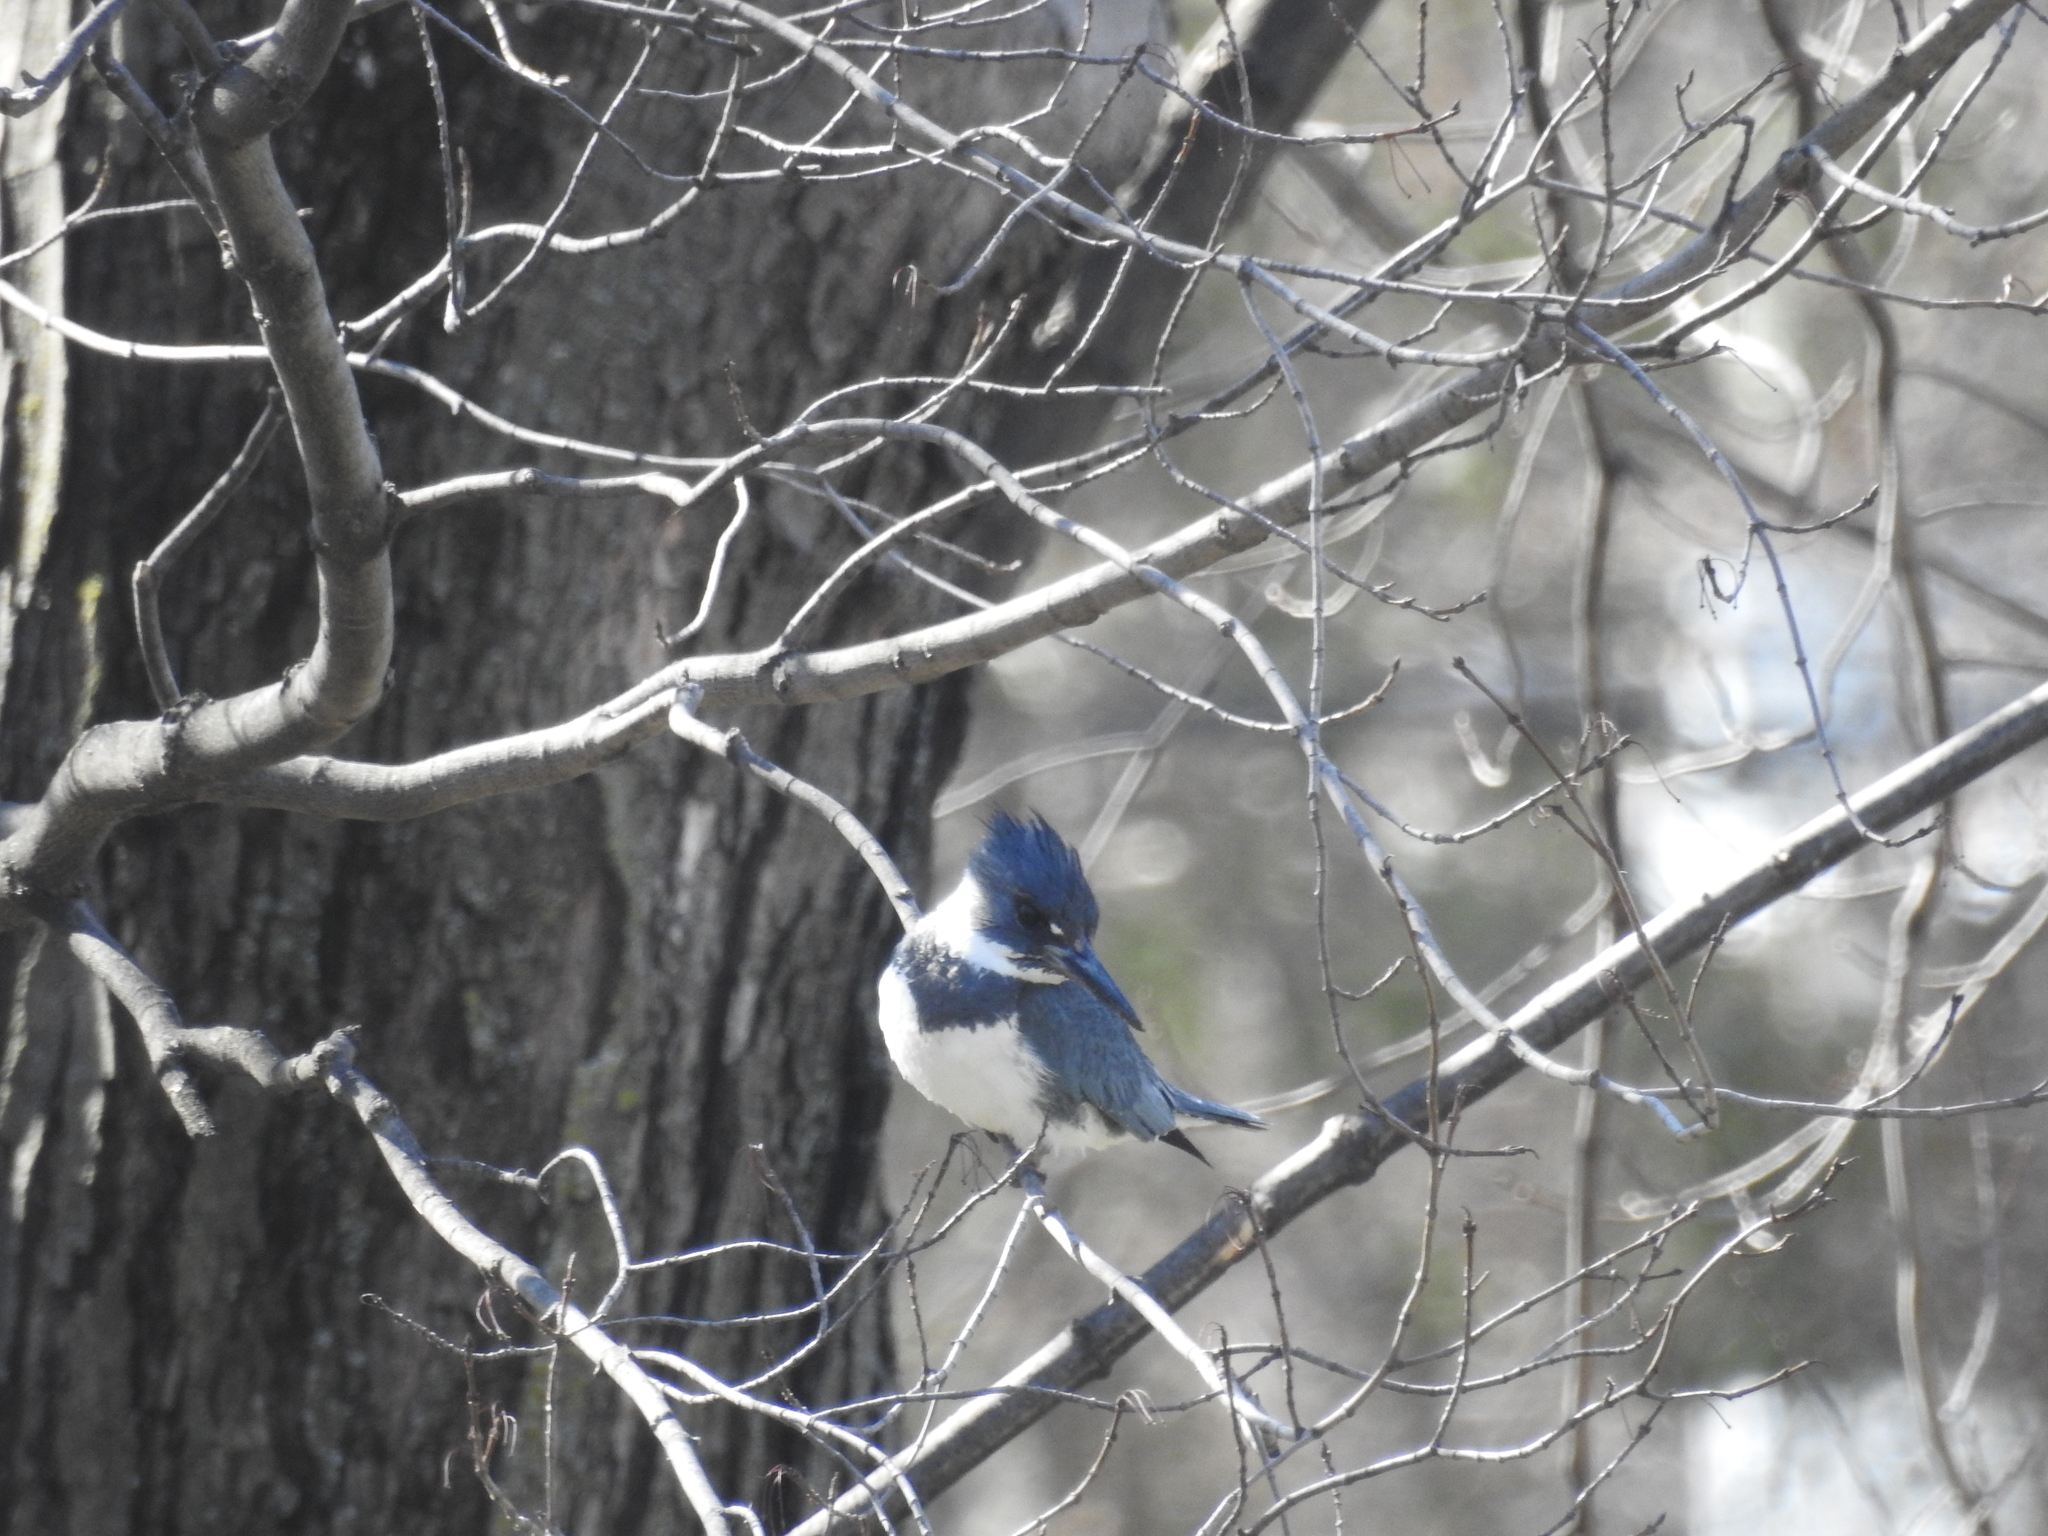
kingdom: Animalia
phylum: Chordata
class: Aves
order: Coraciiformes
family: Alcedinidae
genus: Megaceryle
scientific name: Megaceryle alcyon
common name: Belted kingfisher
